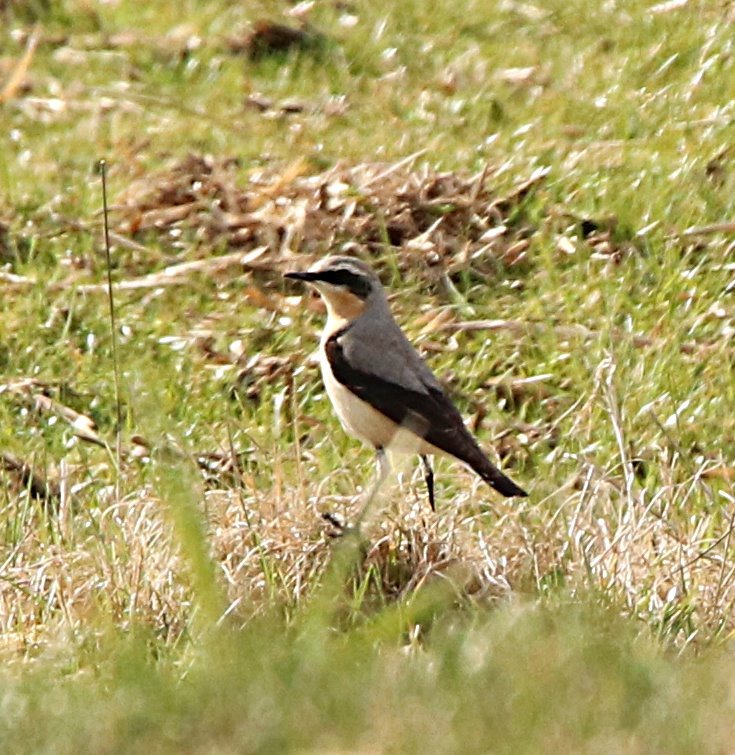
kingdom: Animalia
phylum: Chordata
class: Aves
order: Passeriformes
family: Muscicapidae
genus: Oenanthe
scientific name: Oenanthe oenanthe
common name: Northern wheatear
